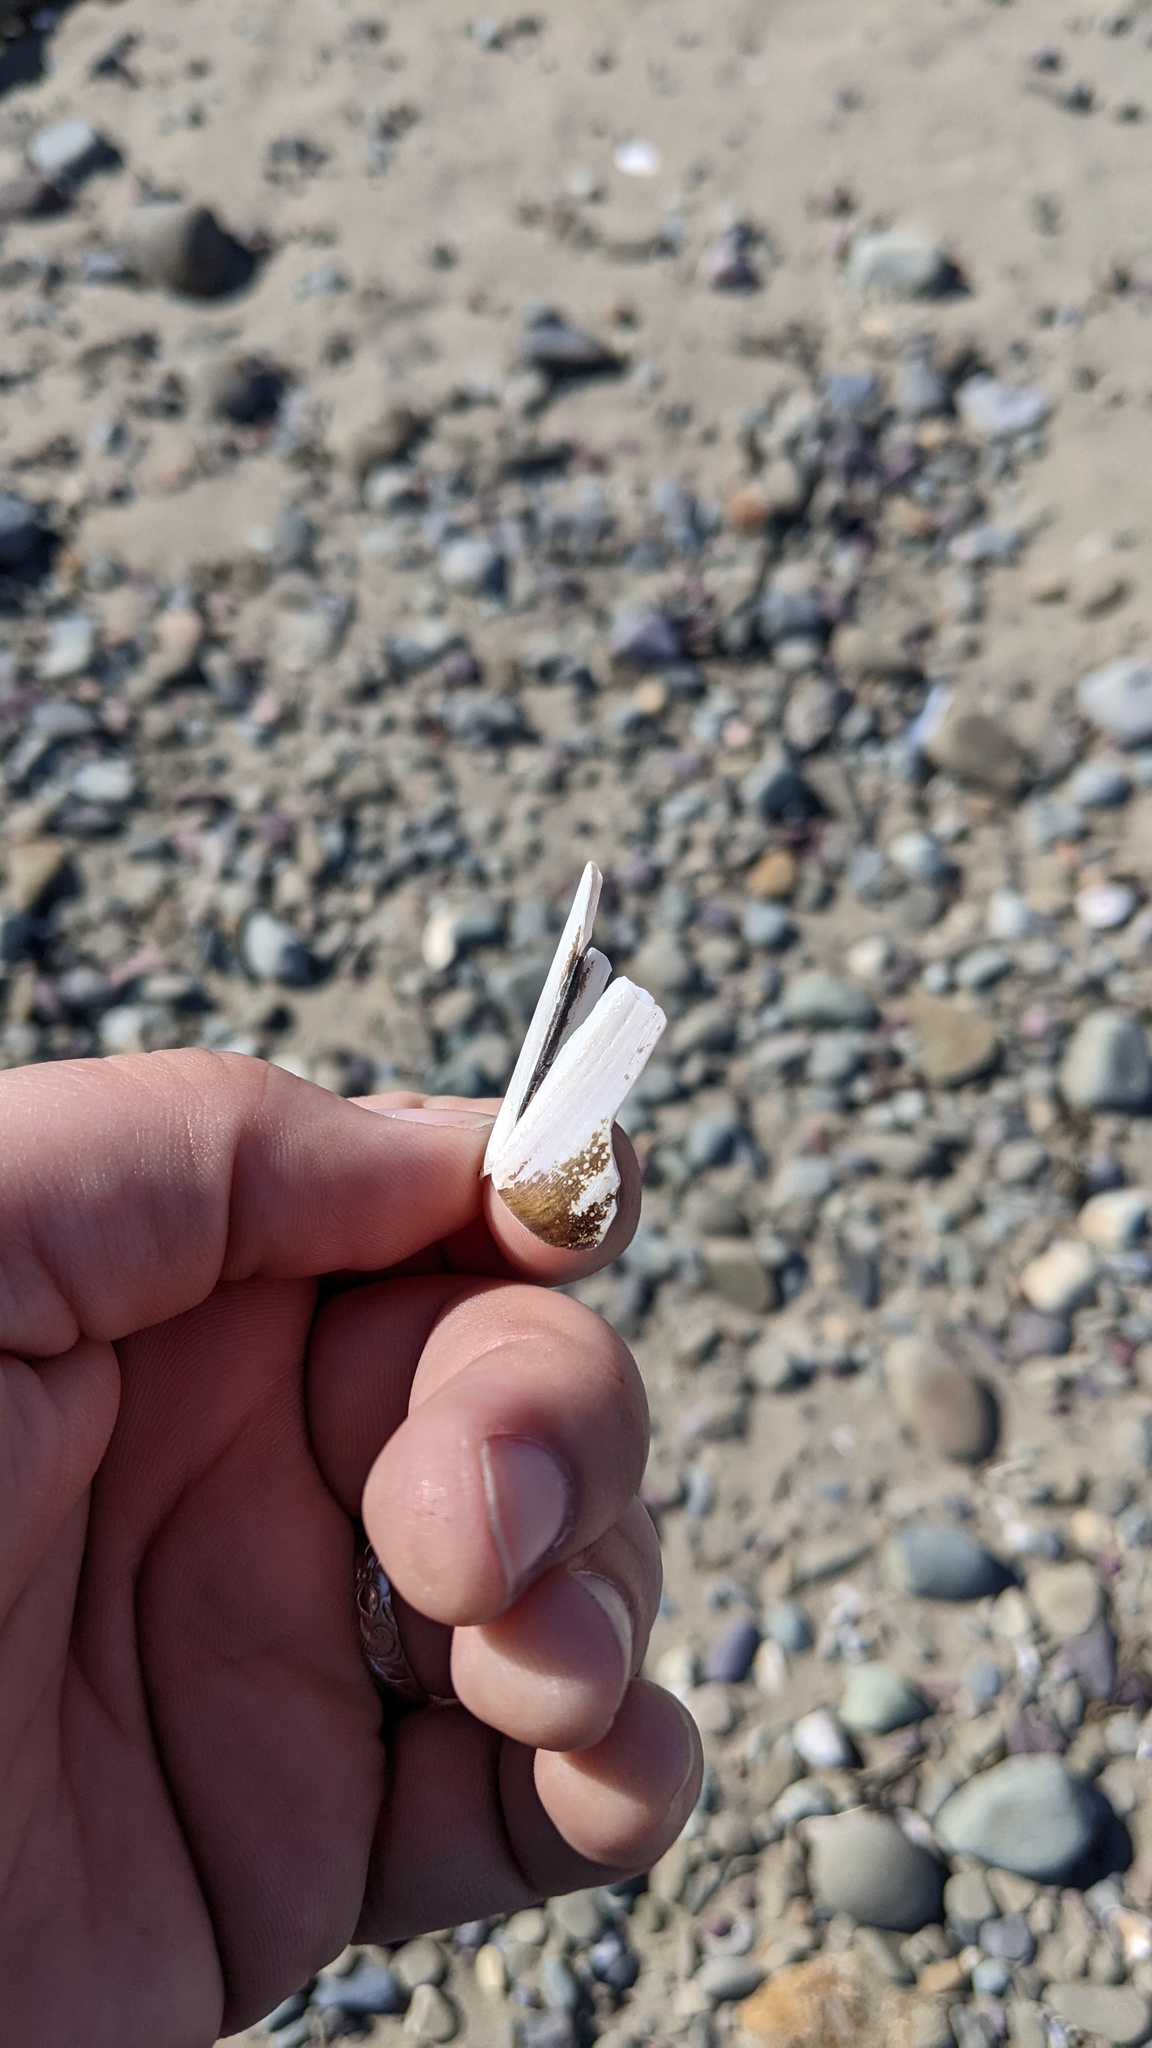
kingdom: Animalia
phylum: Mollusca
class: Bivalvia
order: Adapedonta
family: Pharidae
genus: Ensis
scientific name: Ensis leei
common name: American jack knife clam
